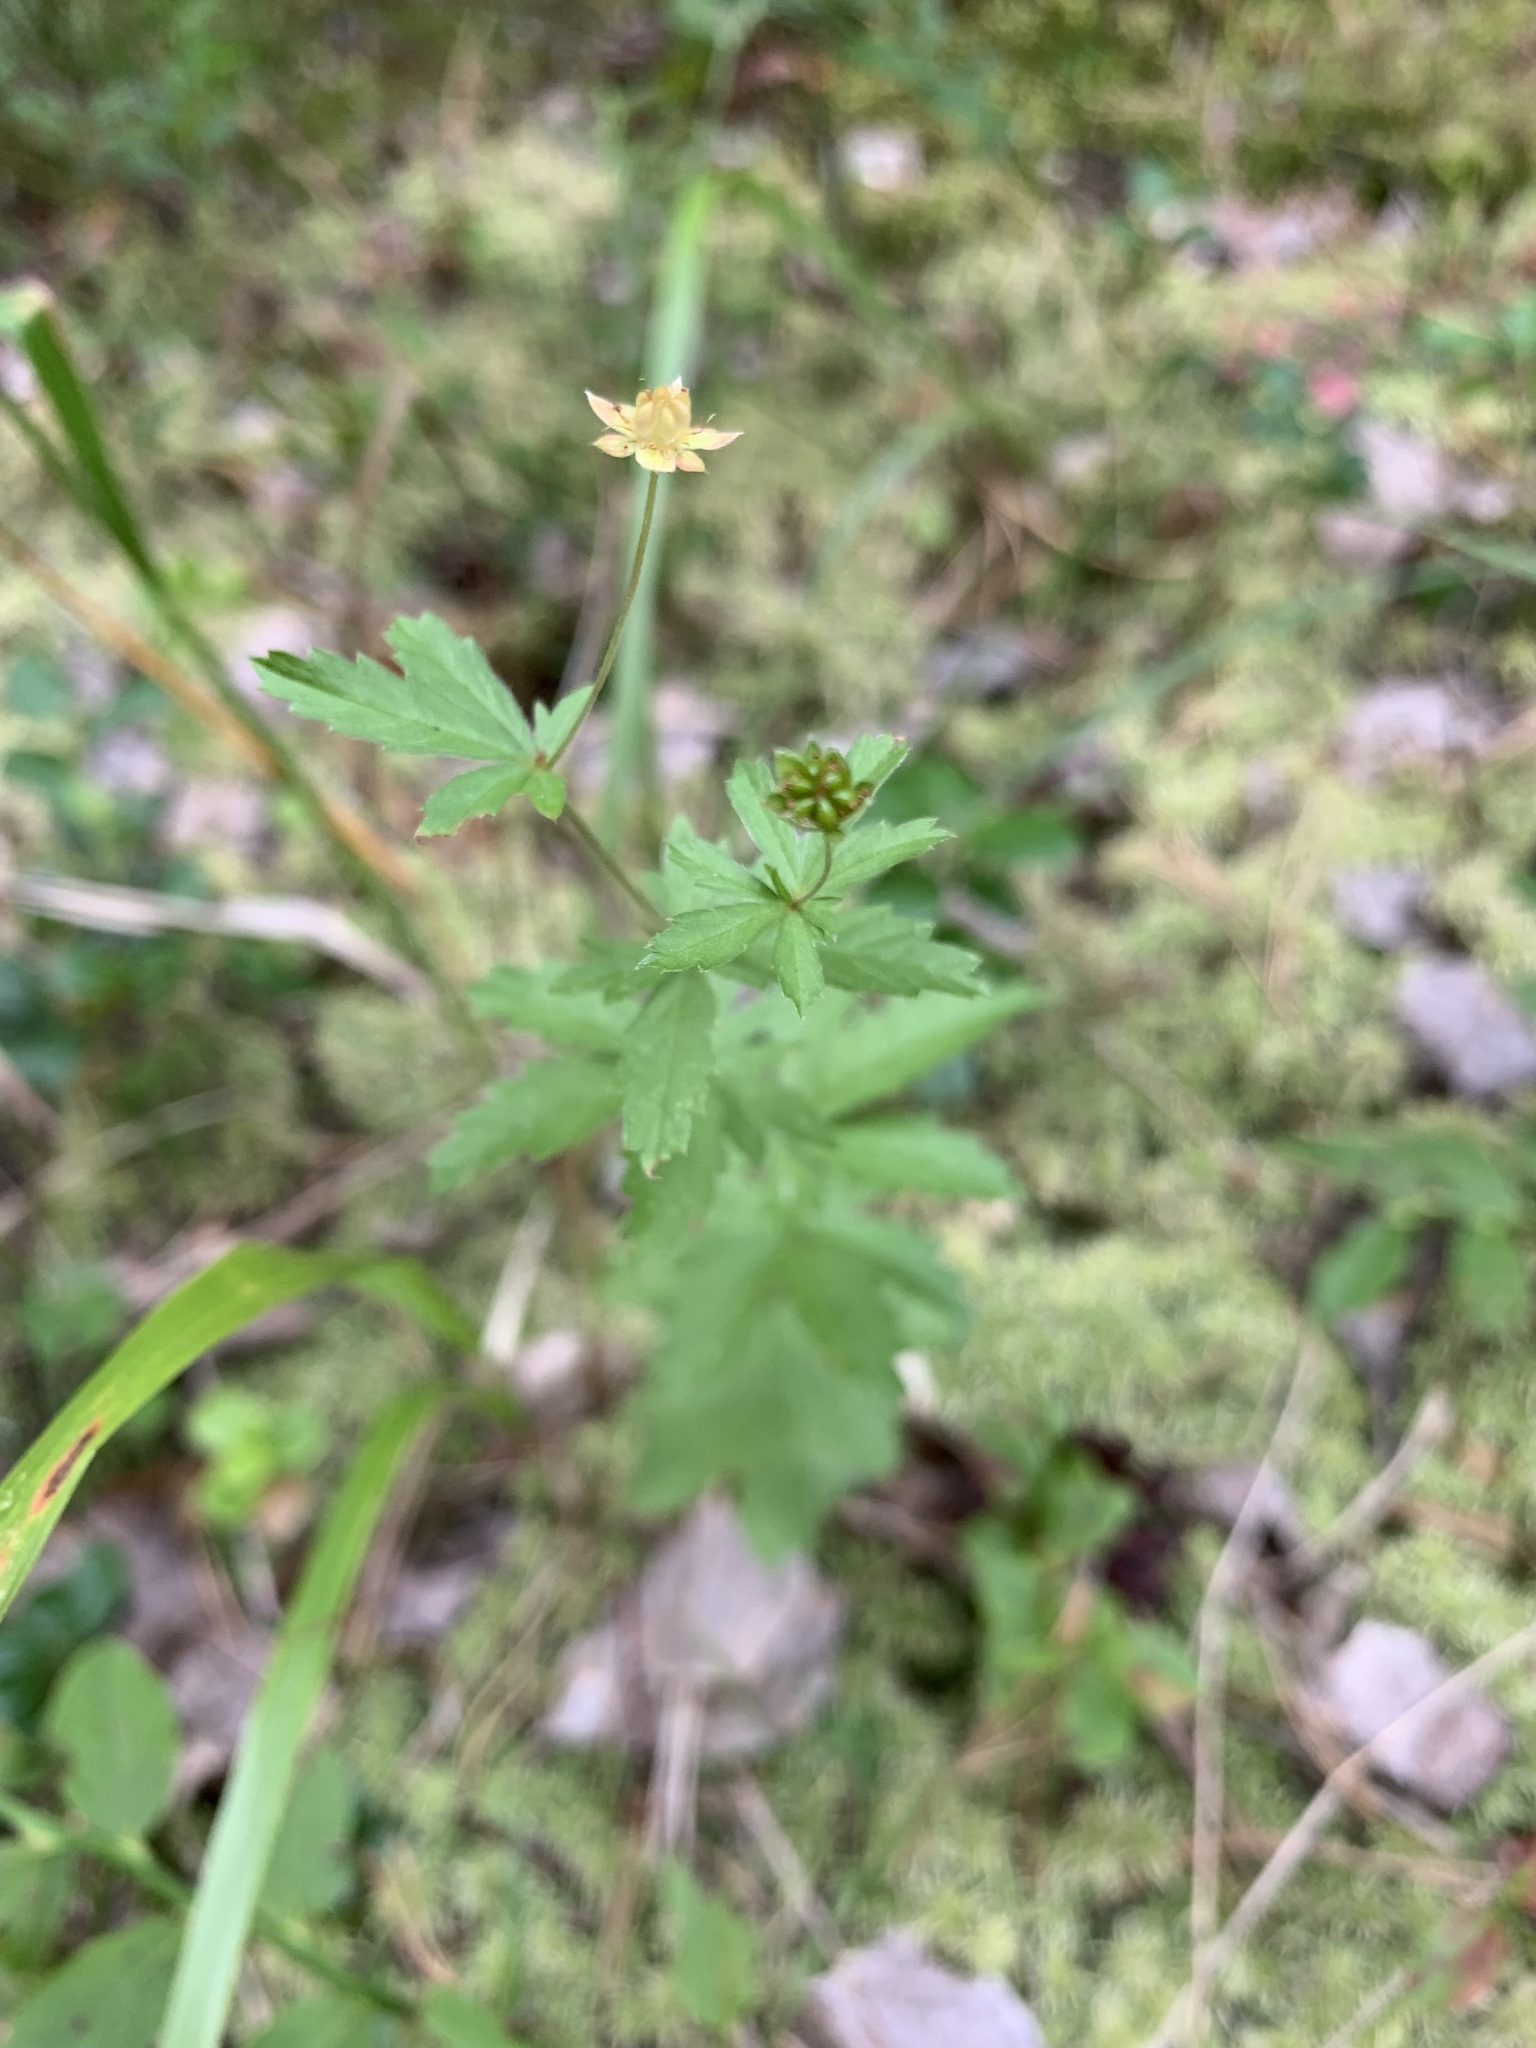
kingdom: Plantae
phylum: Tracheophyta
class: Magnoliopsida
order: Rosales
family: Rosaceae
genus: Potentilla
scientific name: Potentilla erecta
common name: Tormentil
